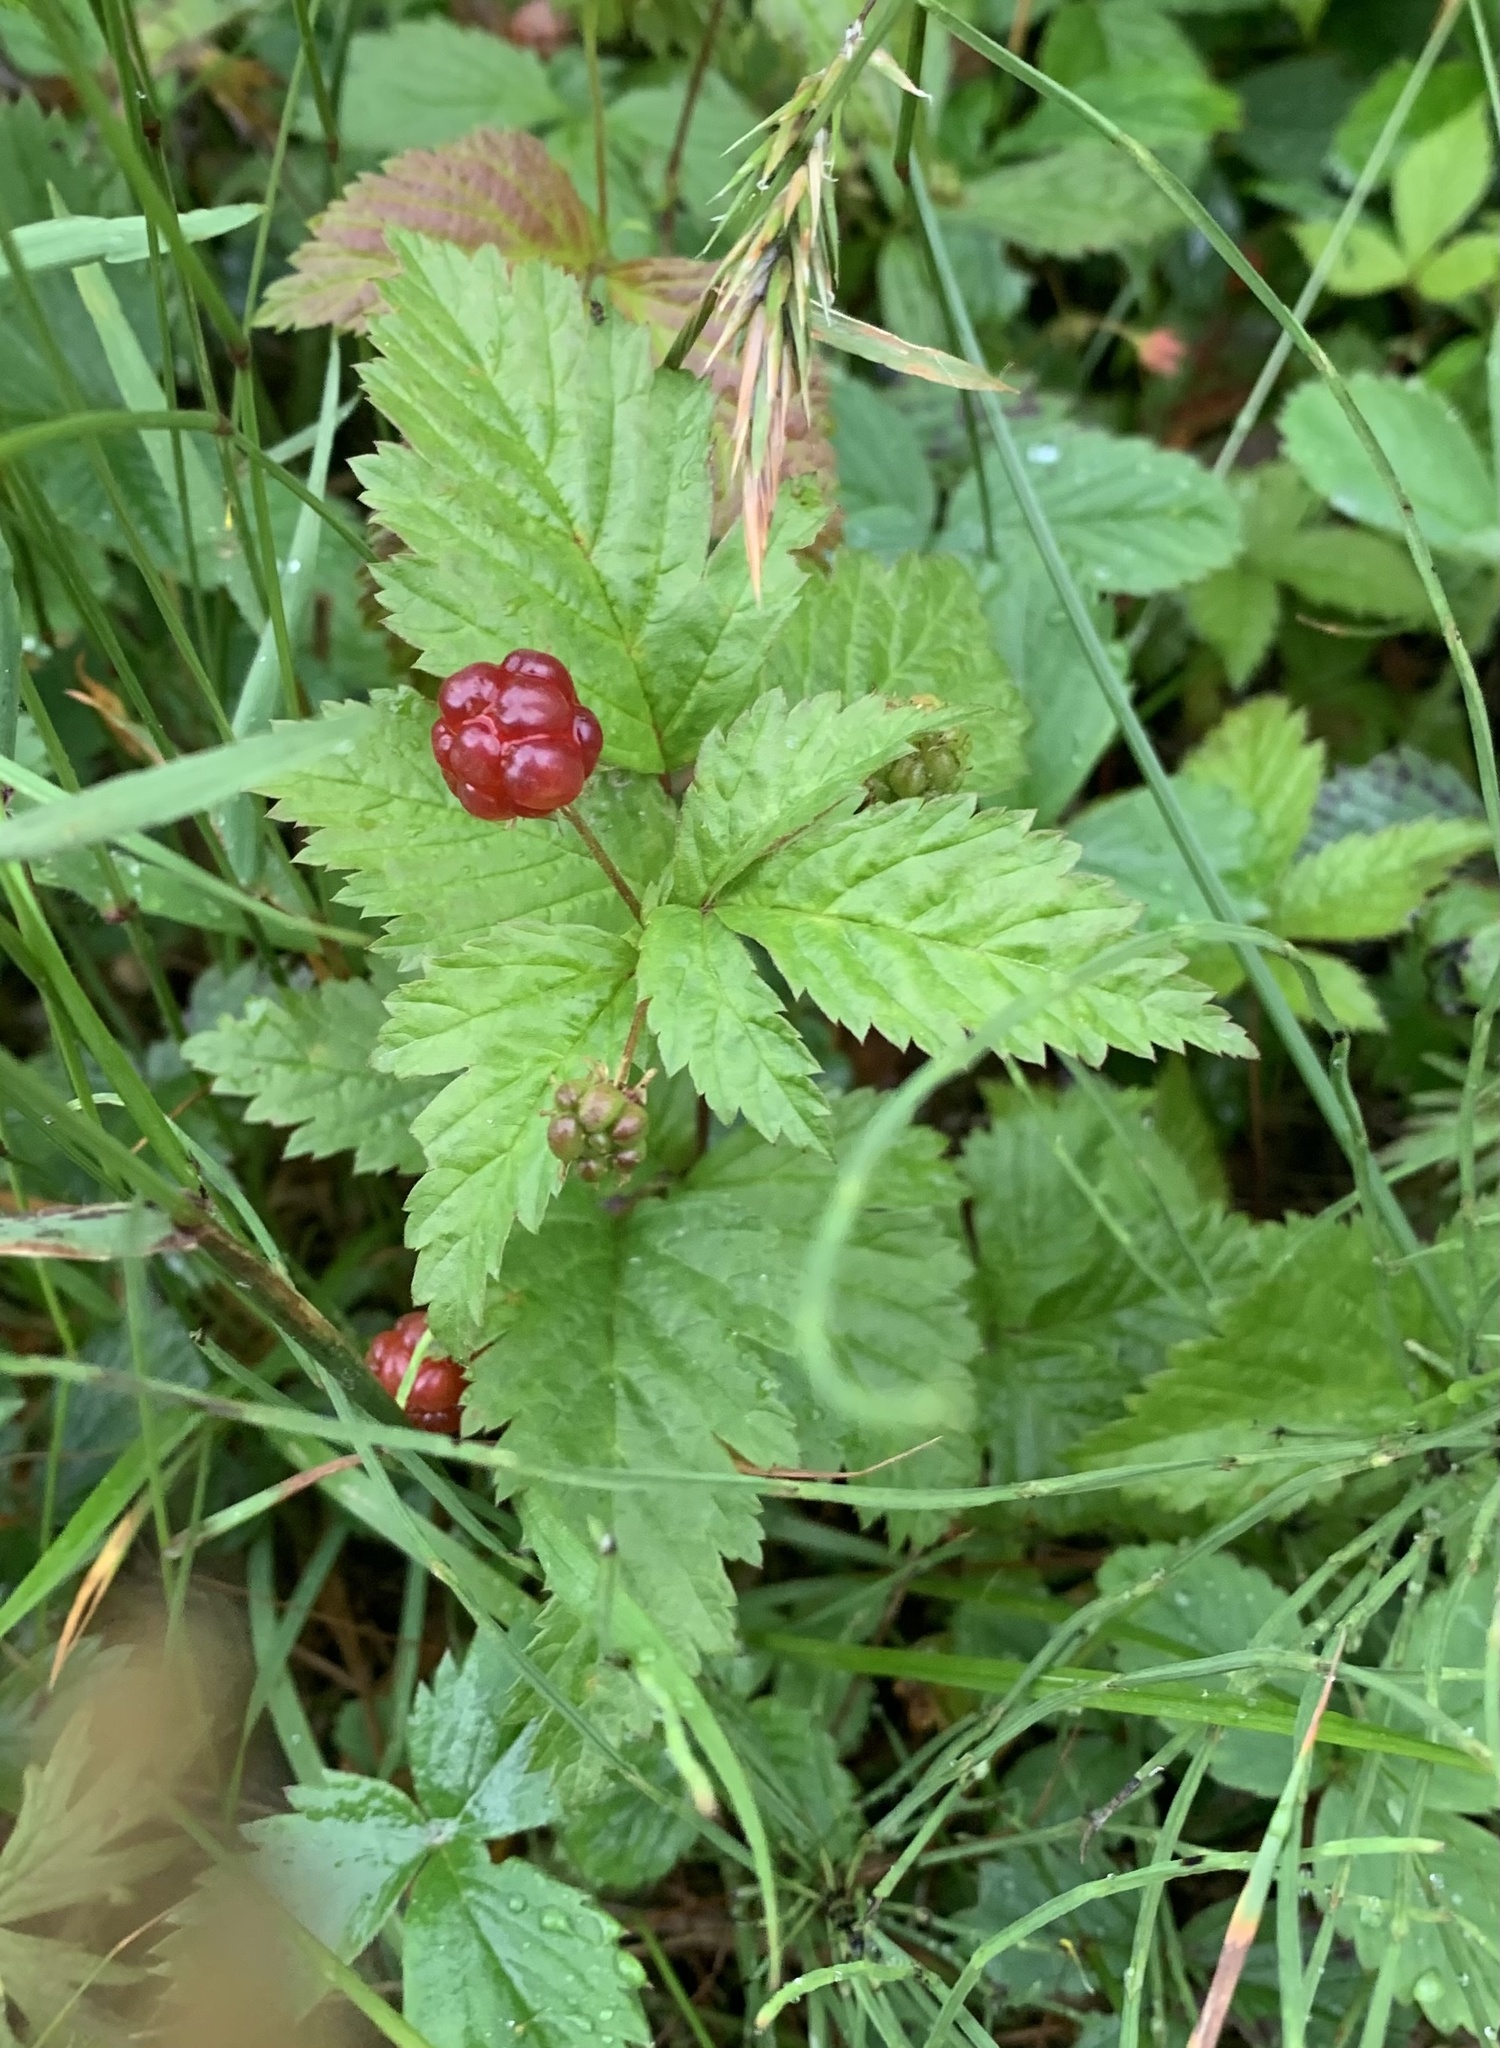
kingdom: Plantae
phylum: Tracheophyta
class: Magnoliopsida
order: Rosales
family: Rosaceae
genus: Rubus
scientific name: Rubus pubescens
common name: Dwarf raspberry
